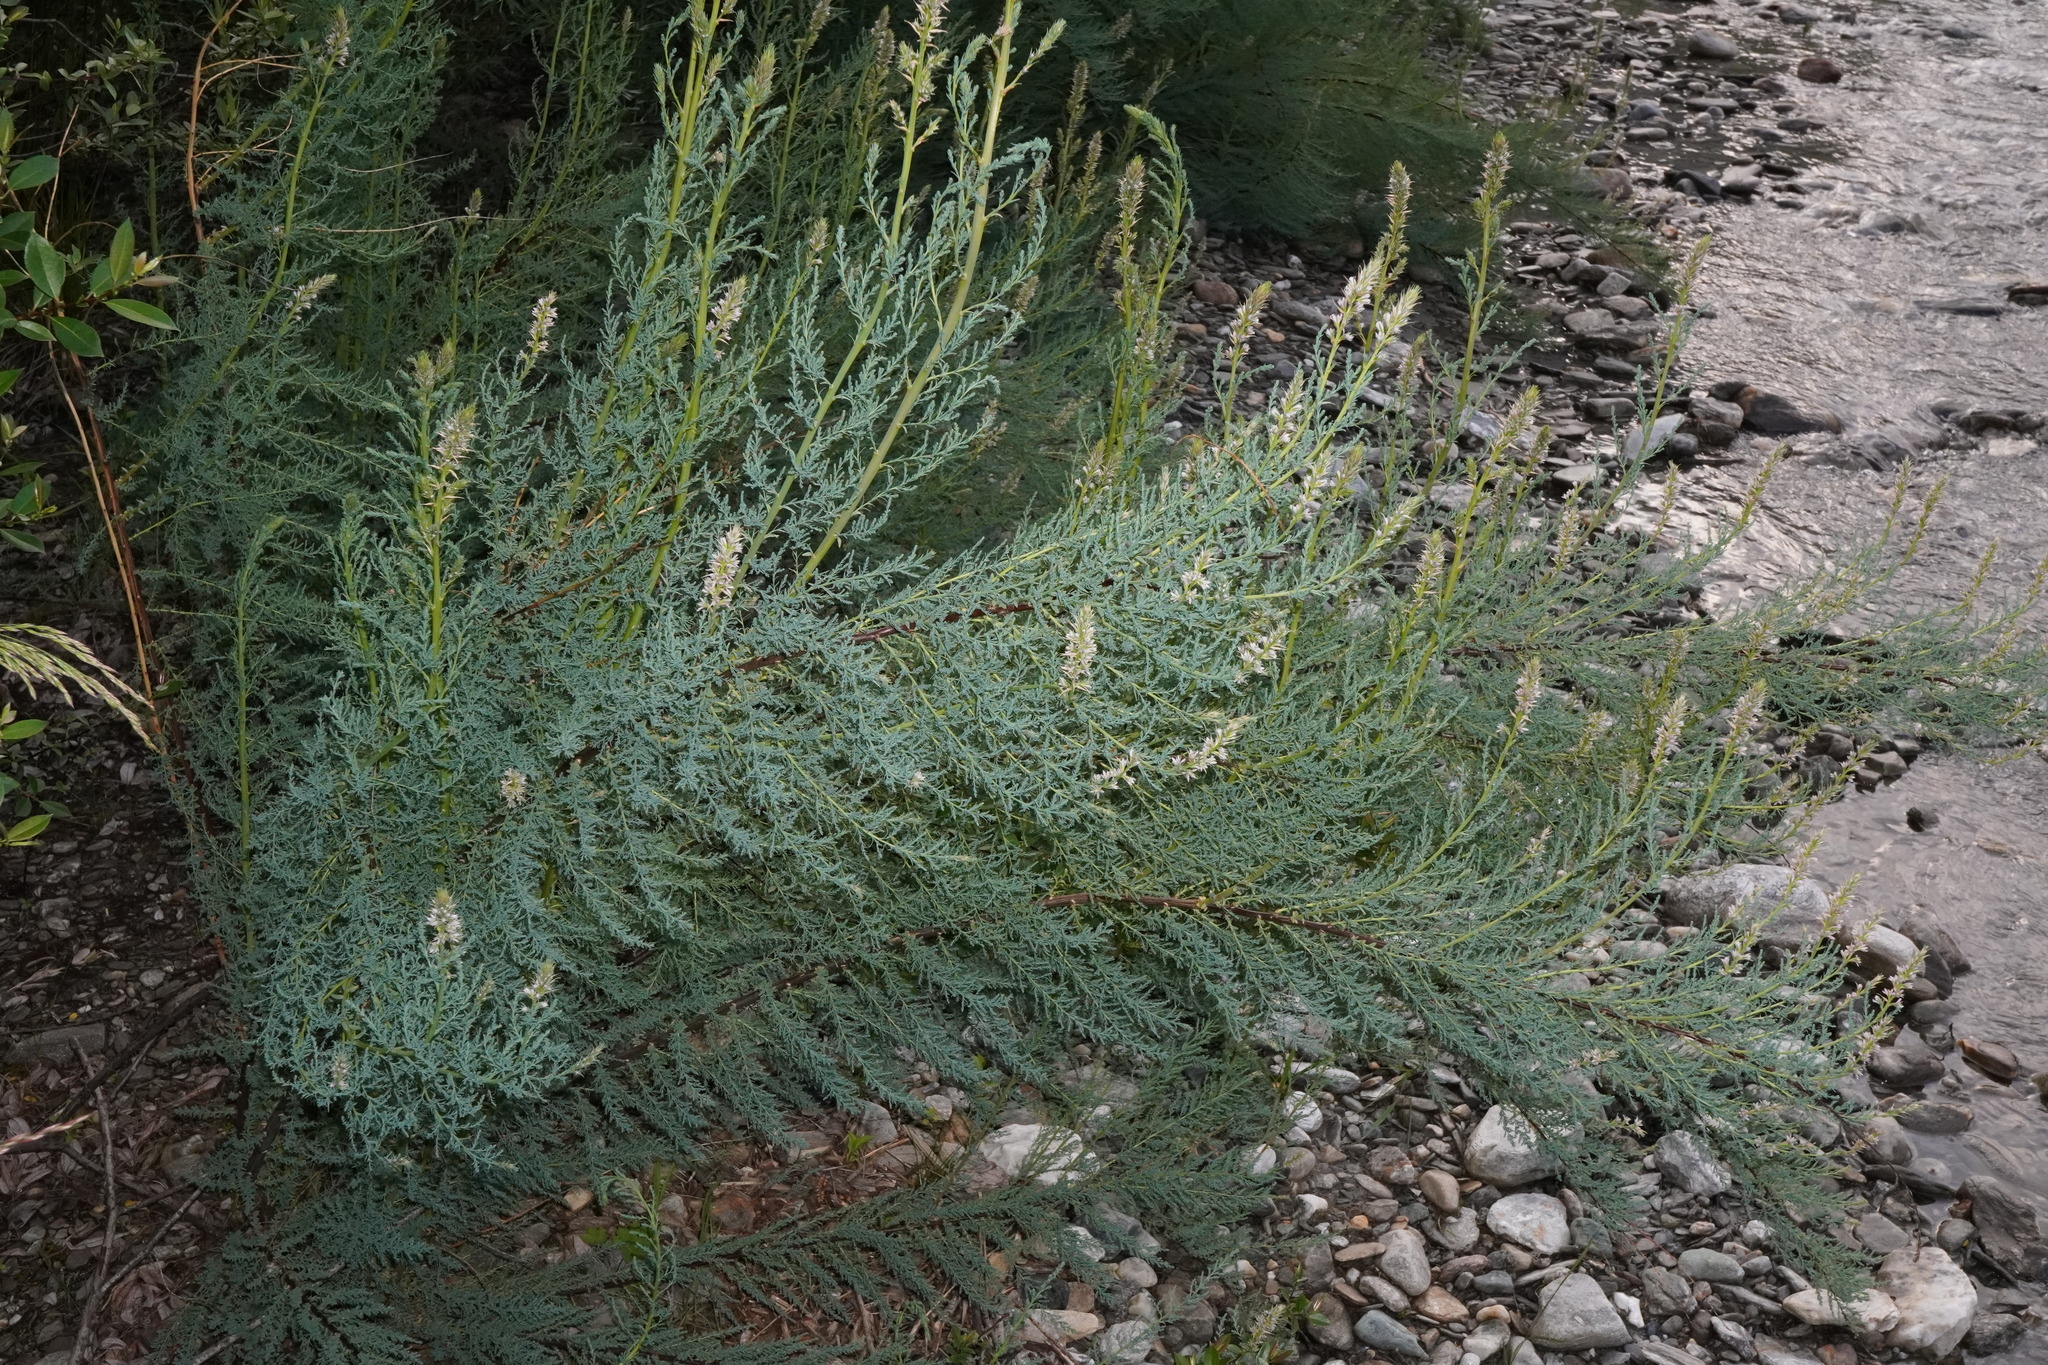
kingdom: Plantae
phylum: Tracheophyta
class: Magnoliopsida
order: Caryophyllales
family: Tamaricaceae
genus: Myricaria
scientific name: Myricaria germanica
